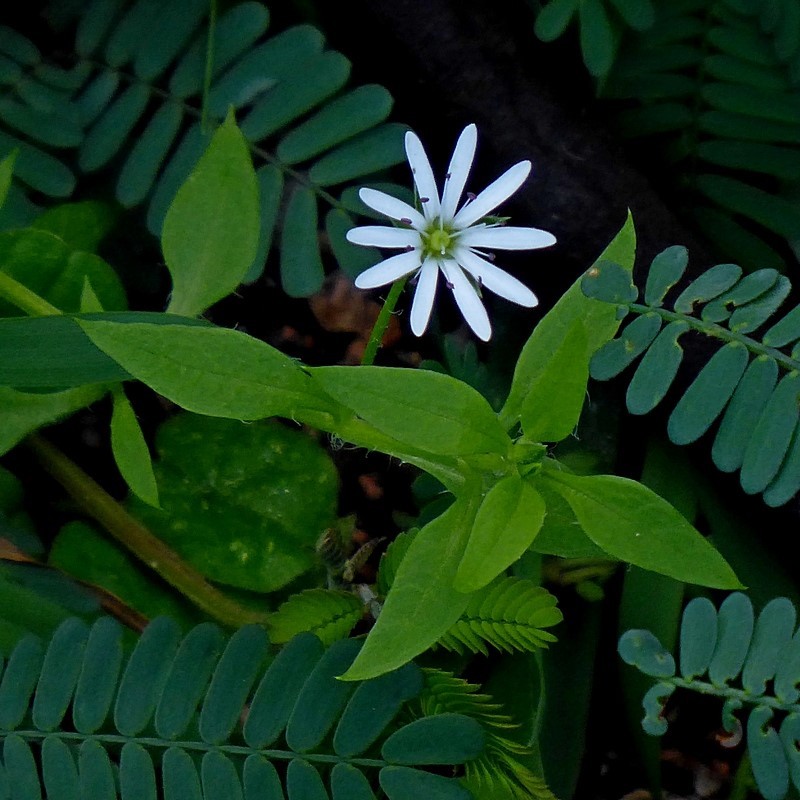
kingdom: Plantae
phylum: Tracheophyta
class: Magnoliopsida
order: Caryophyllales
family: Caryophyllaceae
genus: Stellaria
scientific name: Stellaria flaccida
